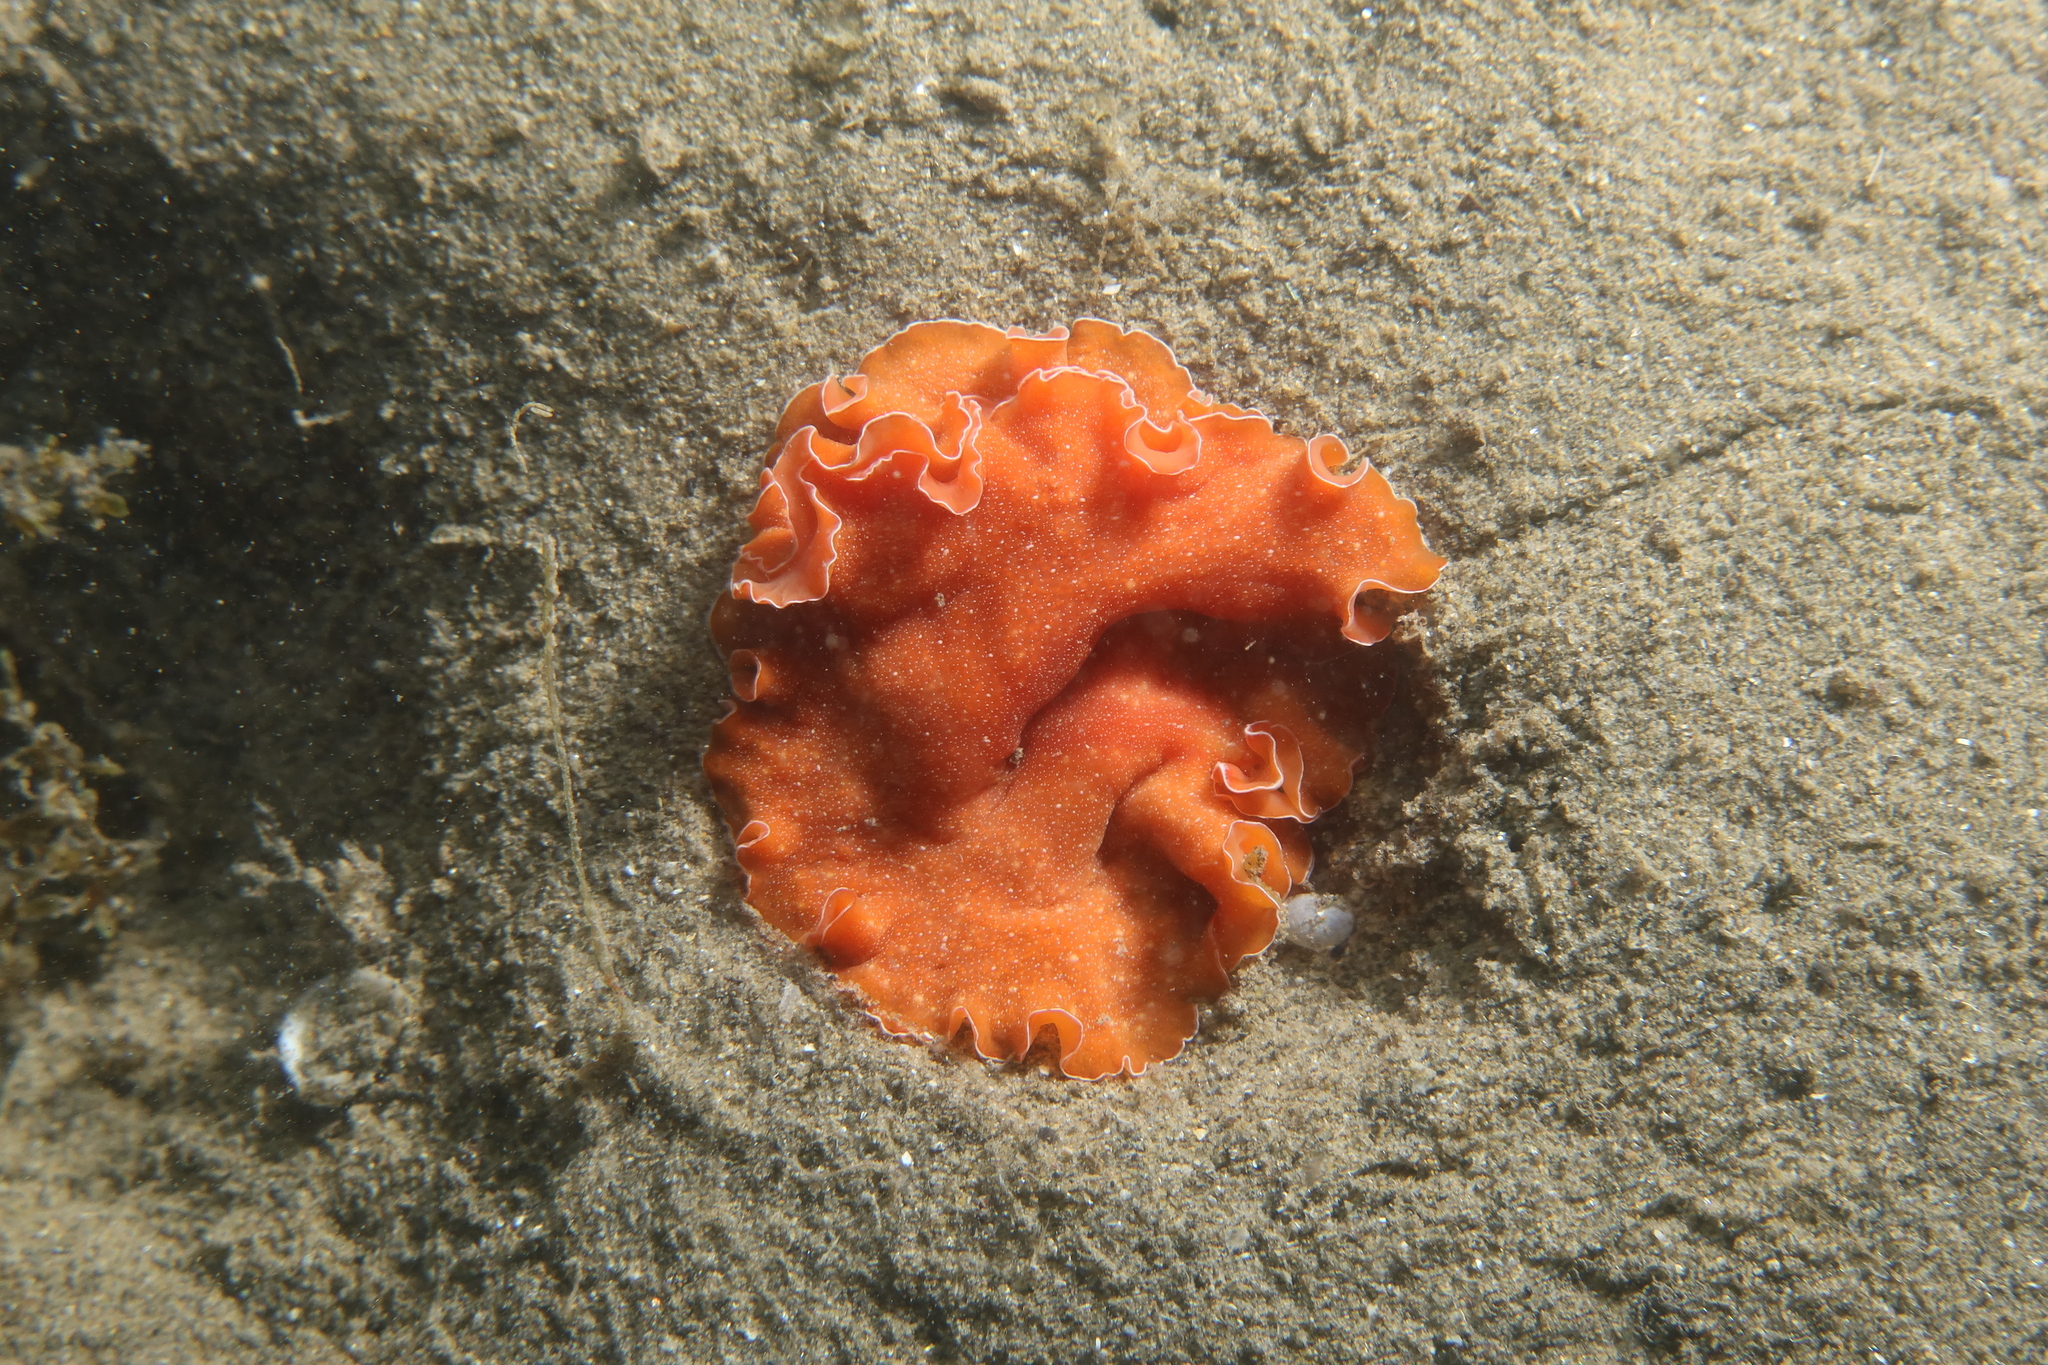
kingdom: Animalia
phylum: Platyhelminthes
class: Turbellaria
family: Pseudocerotidae
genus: Yungia
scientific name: Yungia aurantiaca
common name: Mediterranean orange polyclad worm
